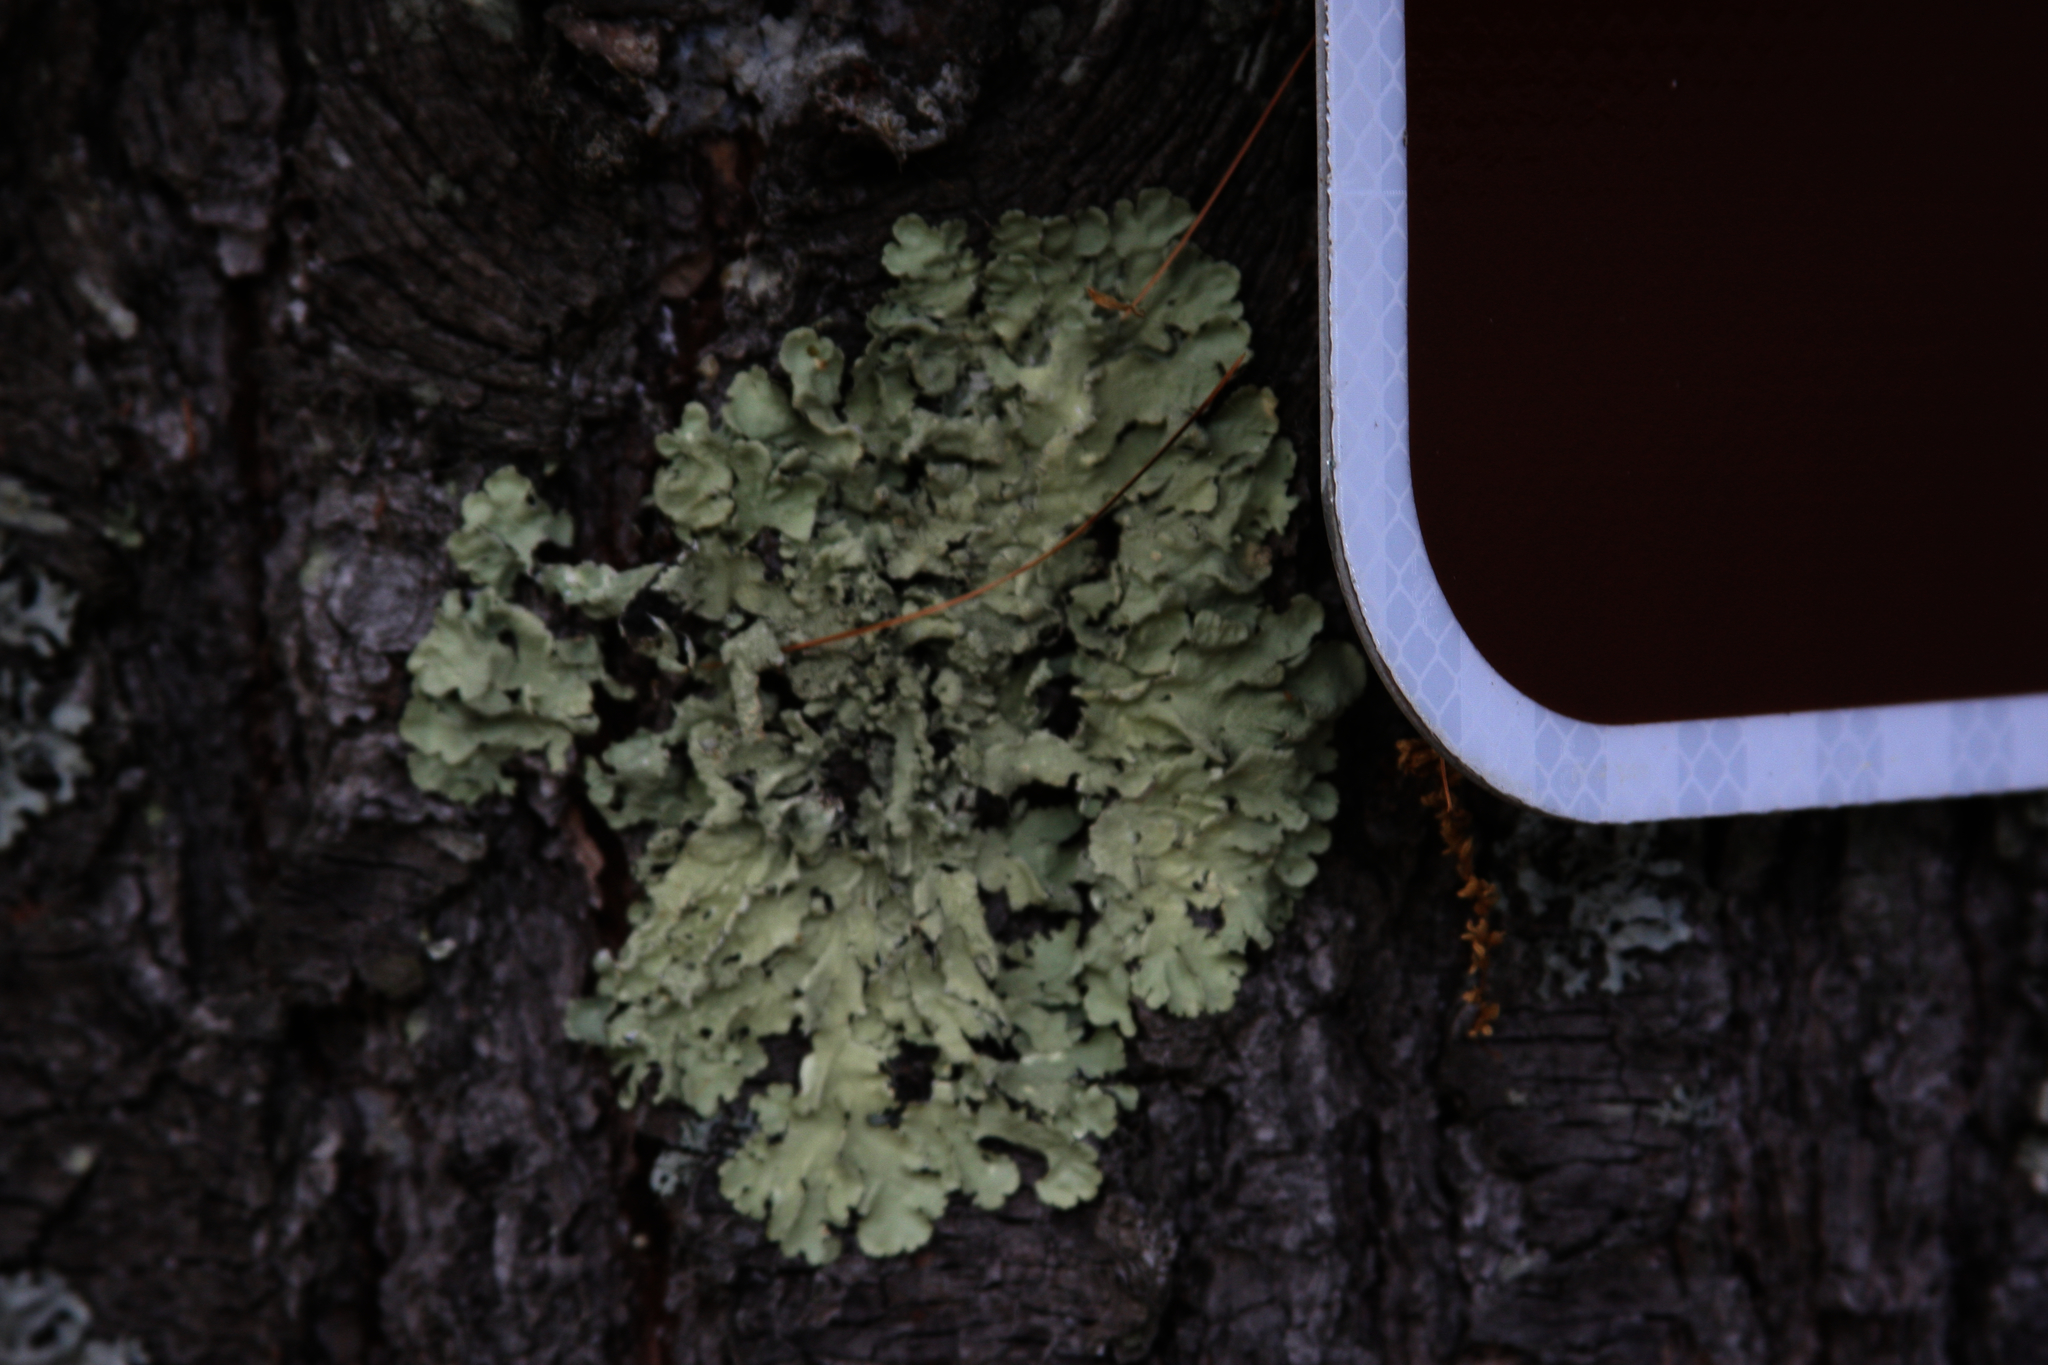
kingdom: Fungi
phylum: Ascomycota
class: Lecanoromycetes
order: Lecanorales
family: Parmeliaceae
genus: Flavoparmelia
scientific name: Flavoparmelia caperata
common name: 40-mile per hour lichen
